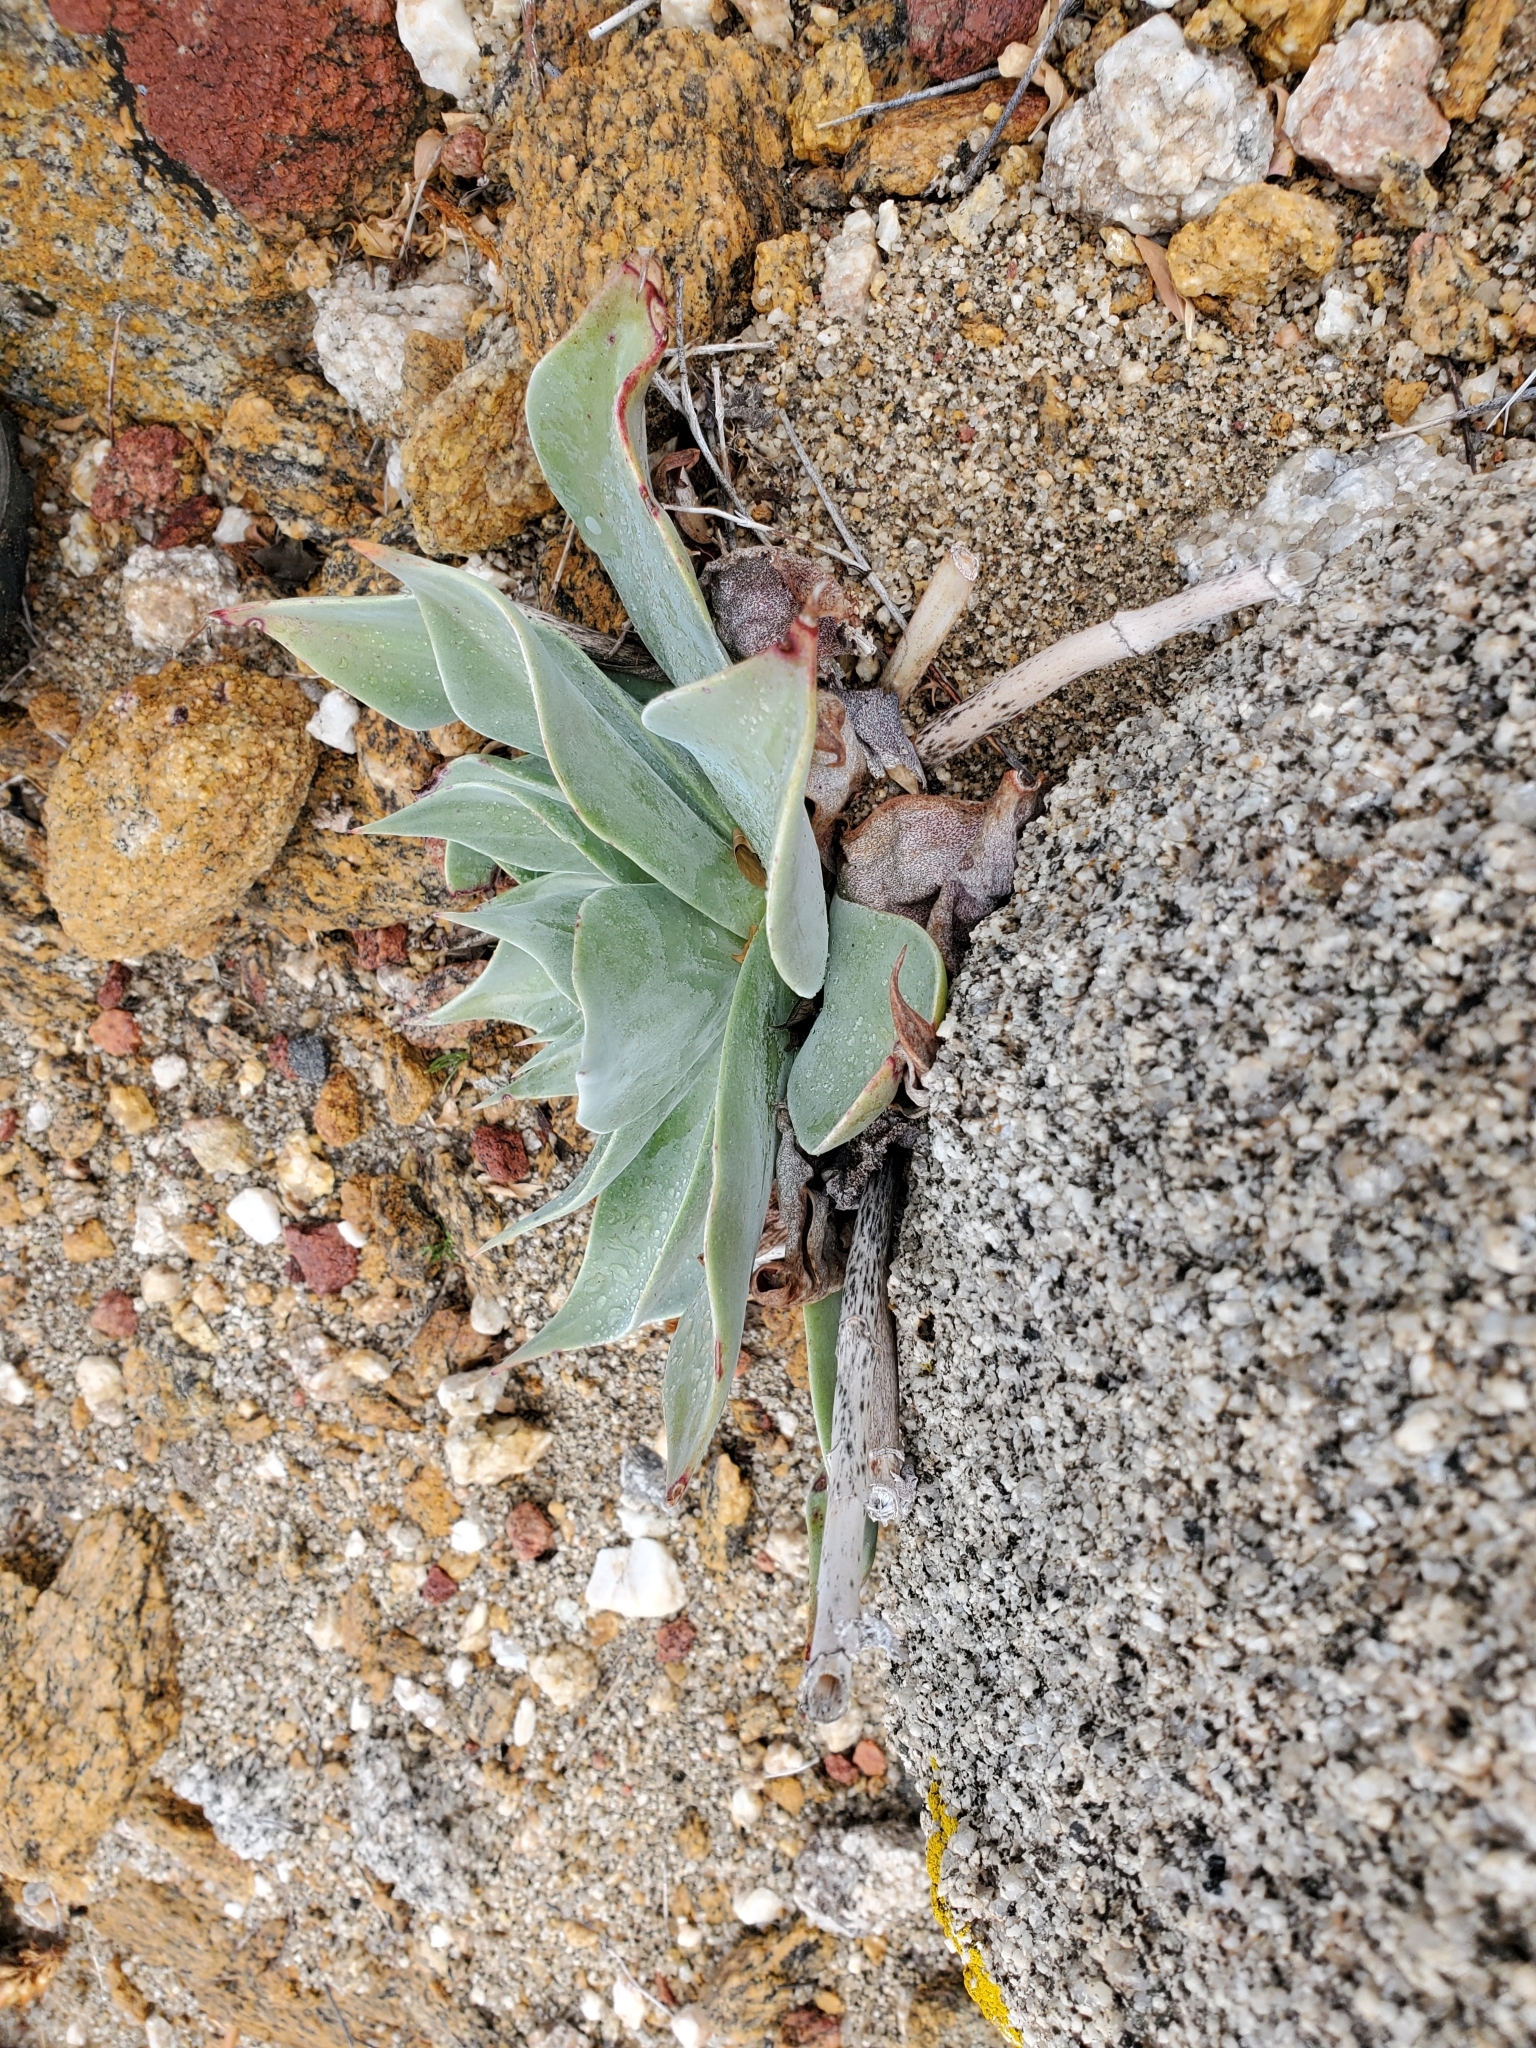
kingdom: Plantae
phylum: Tracheophyta
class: Magnoliopsida
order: Saxifragales
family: Crassulaceae
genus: Dudleya
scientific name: Dudleya arizonica
